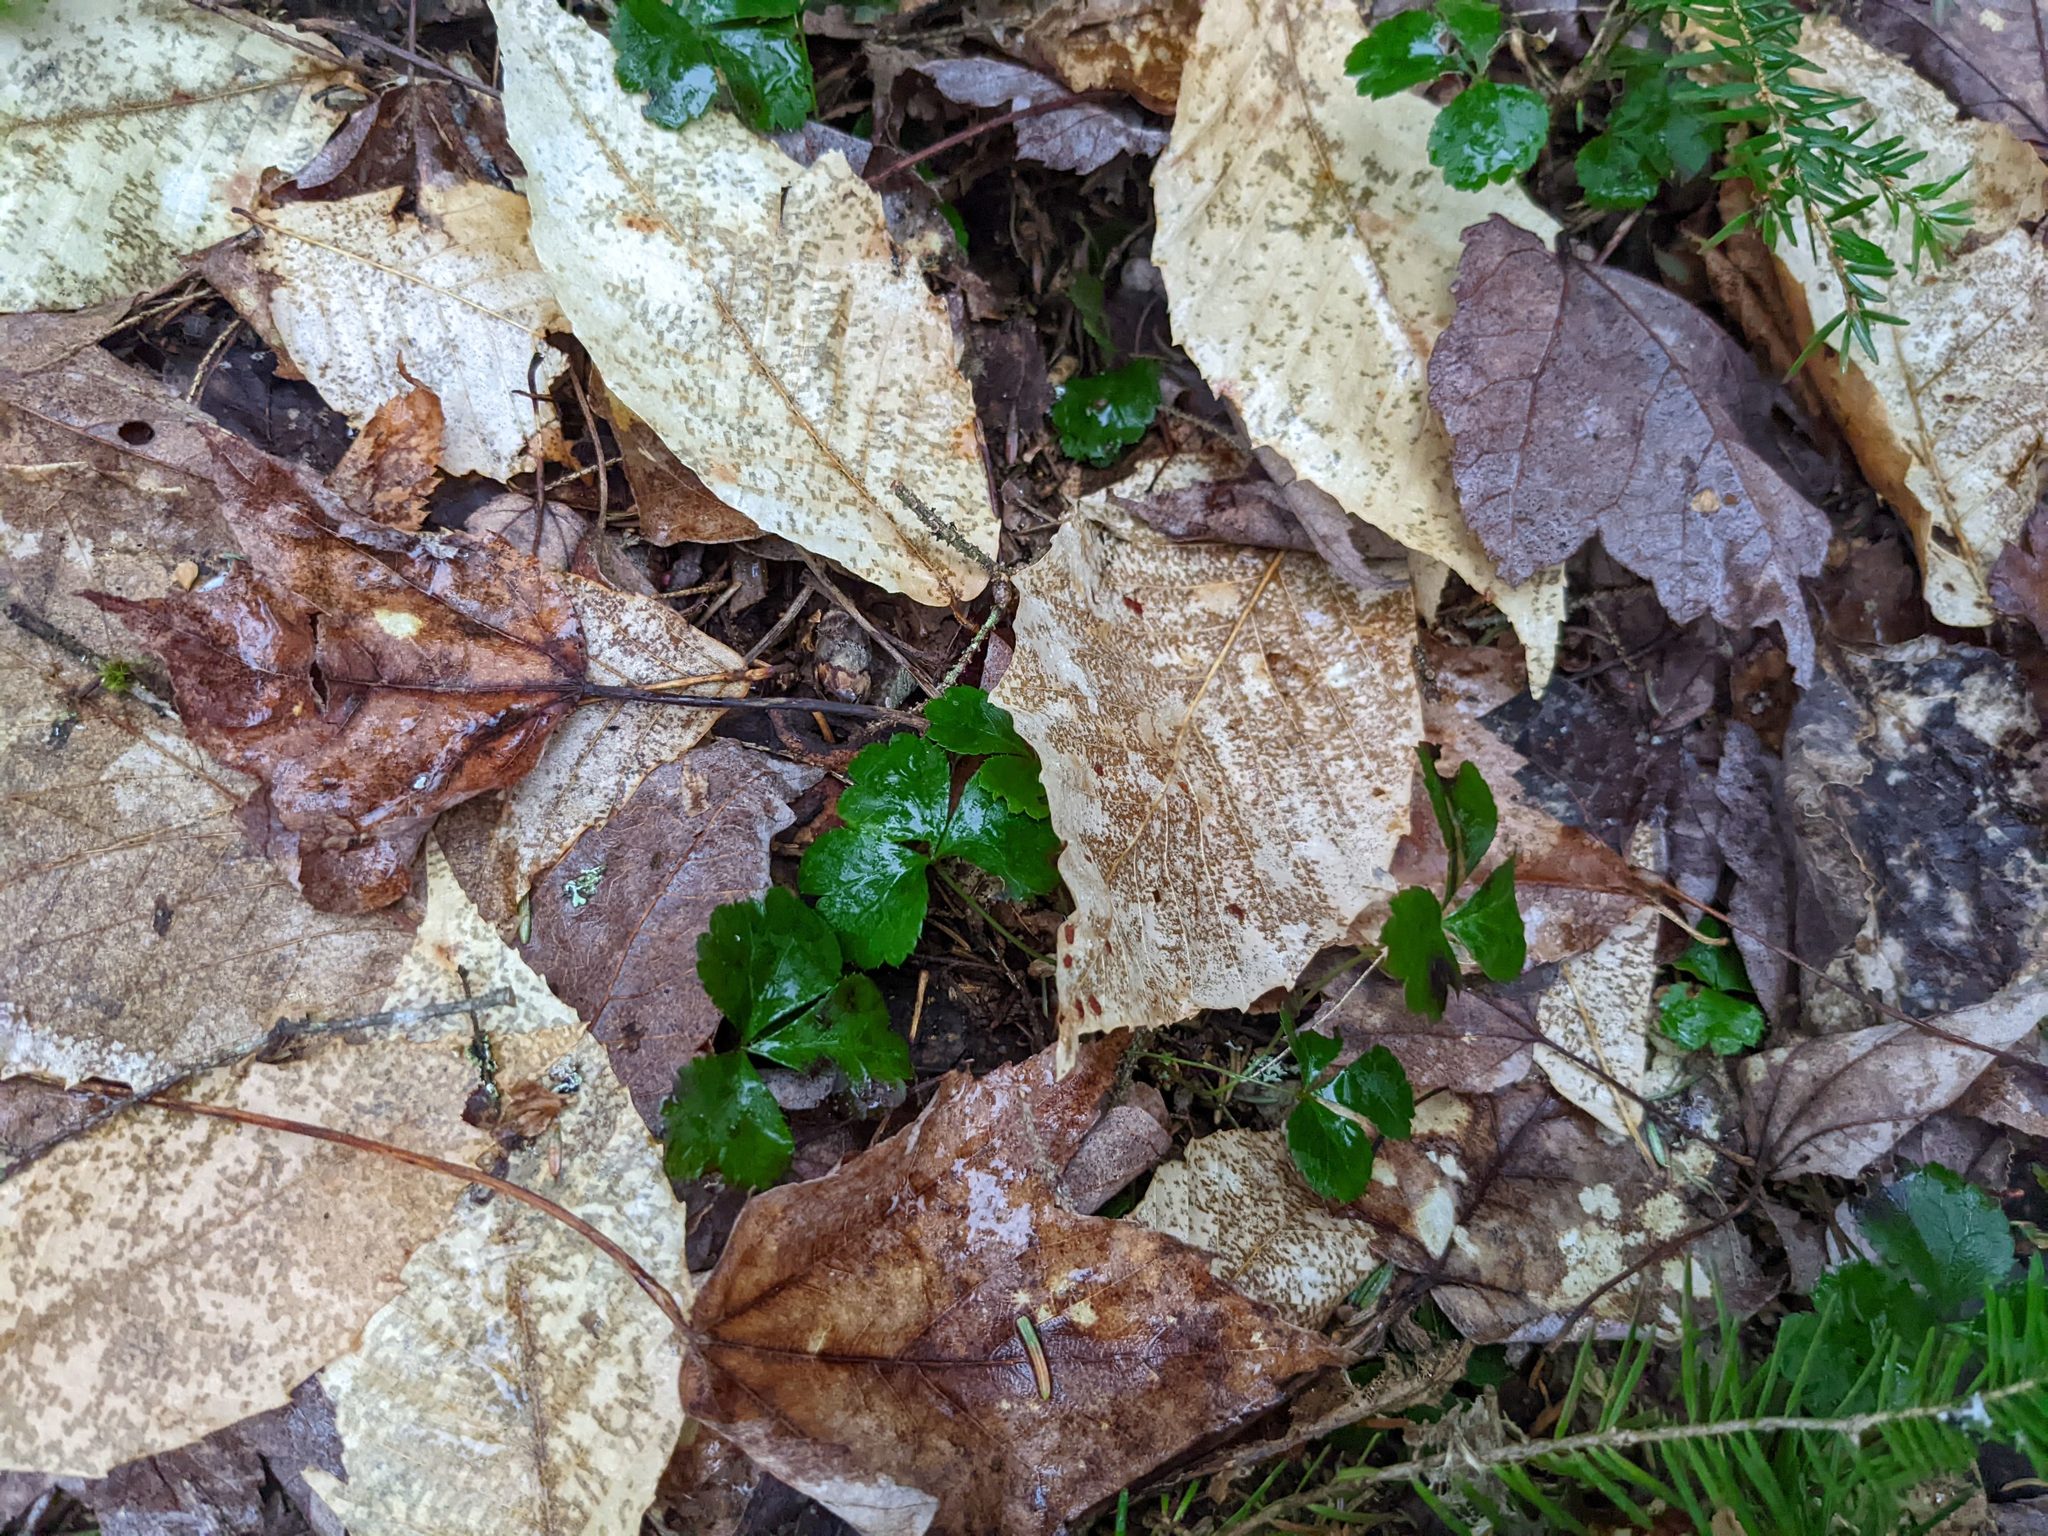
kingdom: Plantae
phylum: Tracheophyta
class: Magnoliopsida
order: Fagales
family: Fagaceae
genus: Fagus
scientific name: Fagus grandifolia
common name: American beech
